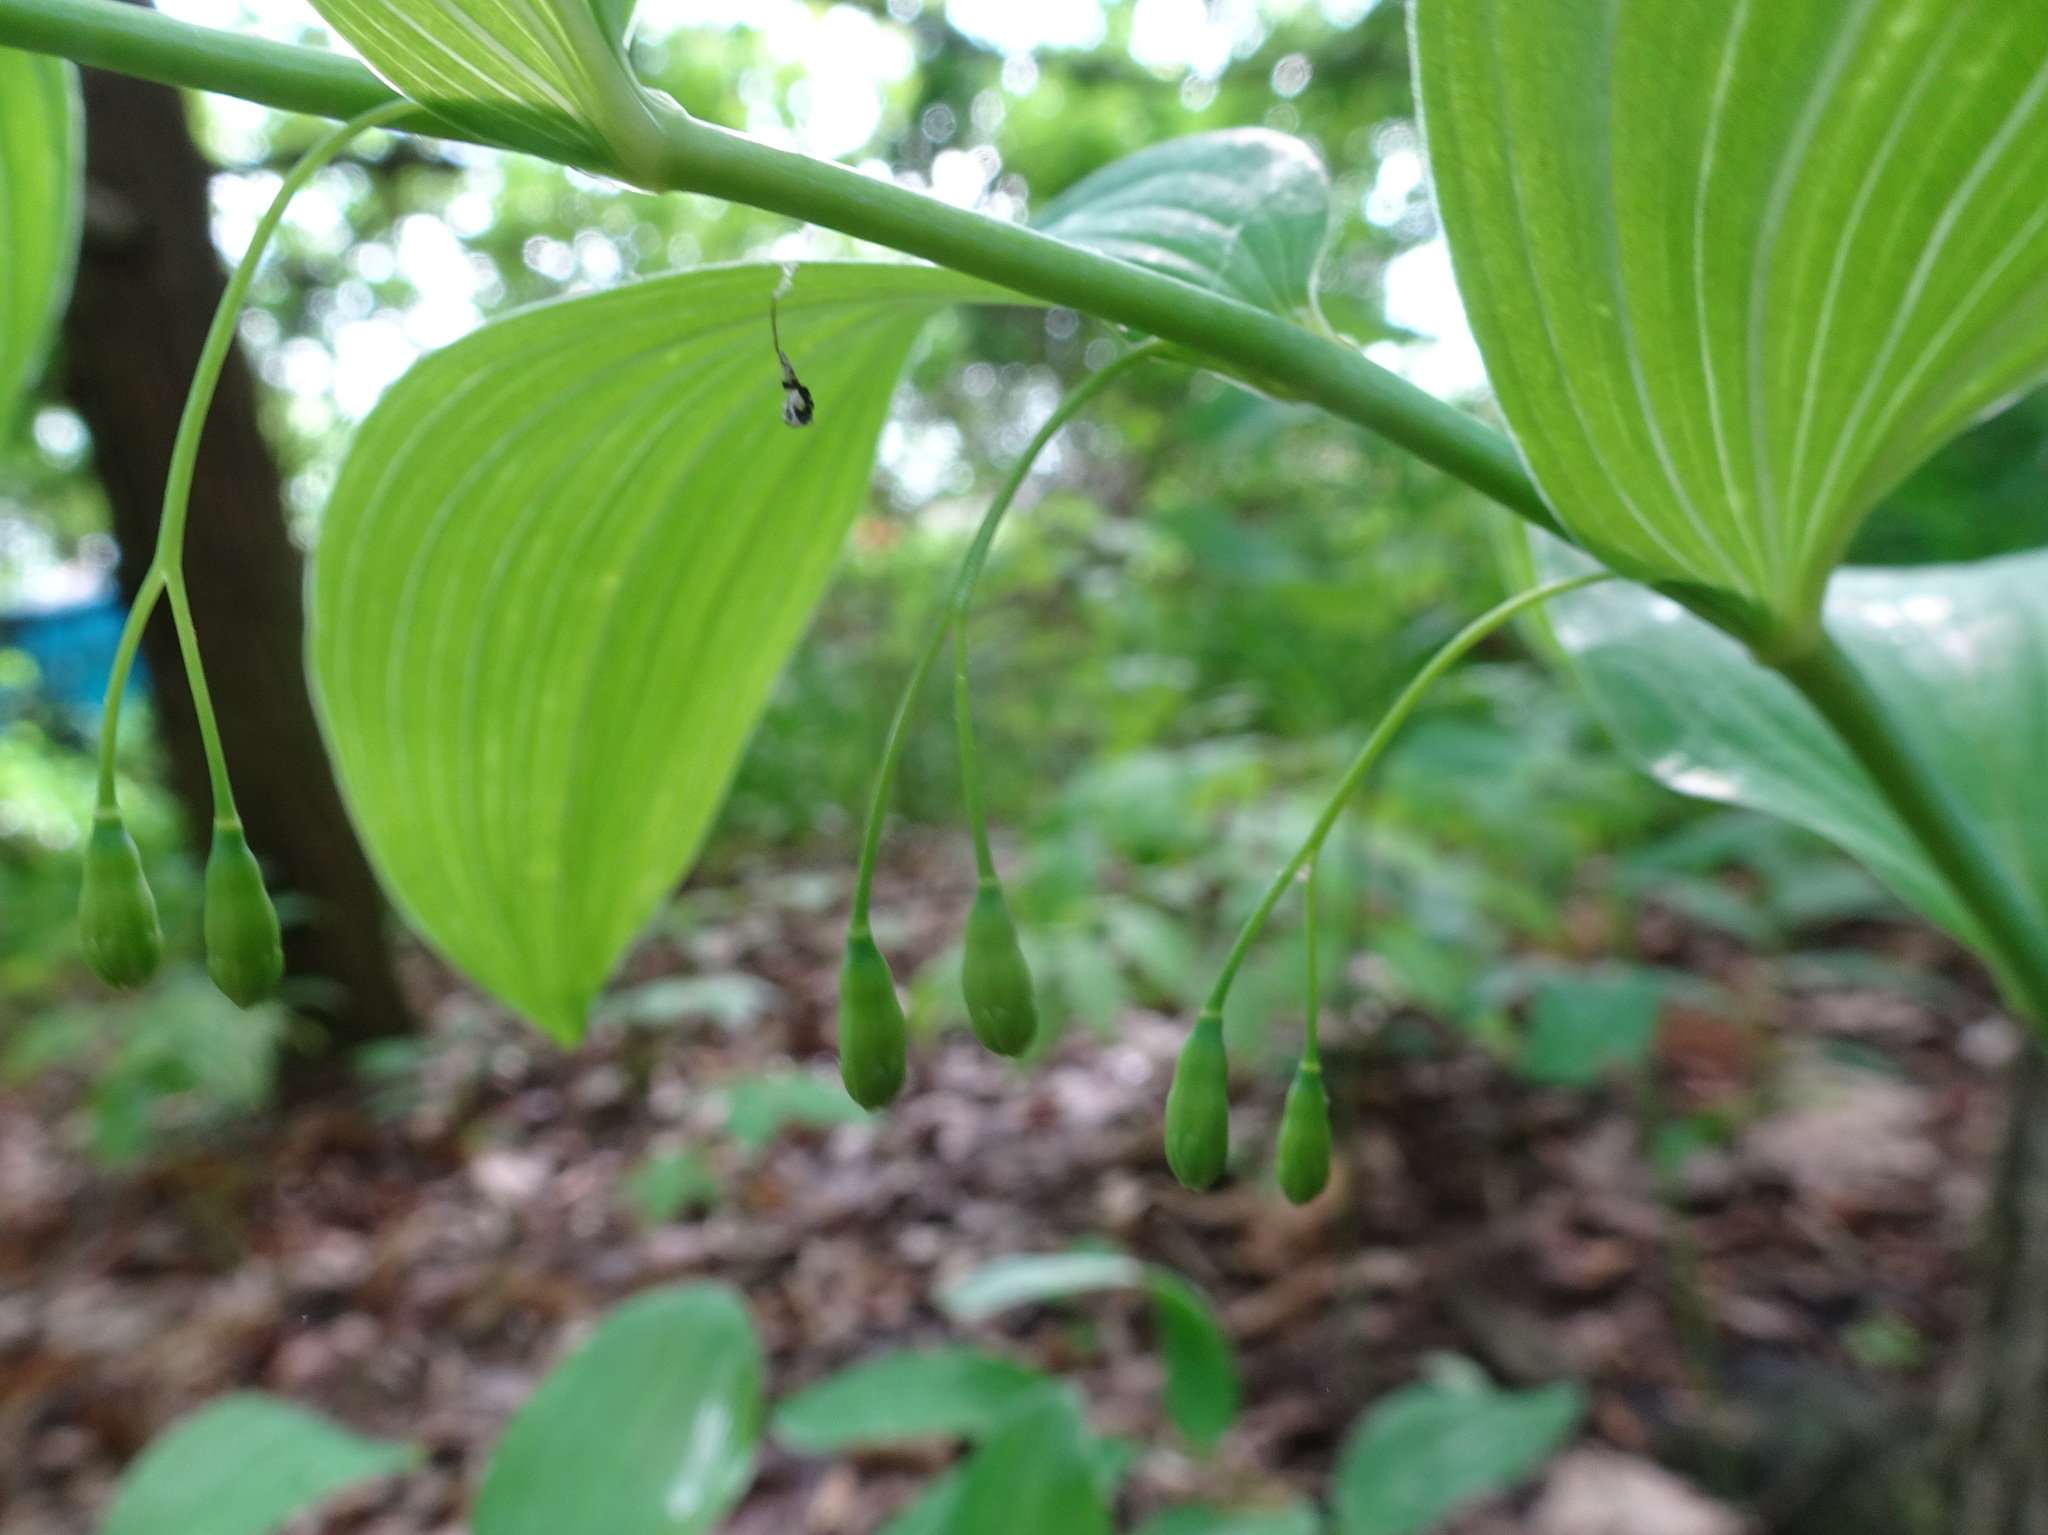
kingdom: Plantae
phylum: Tracheophyta
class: Liliopsida
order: Asparagales
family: Asparagaceae
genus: Polygonatum
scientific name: Polygonatum biflorum
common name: American solomon's-seal
